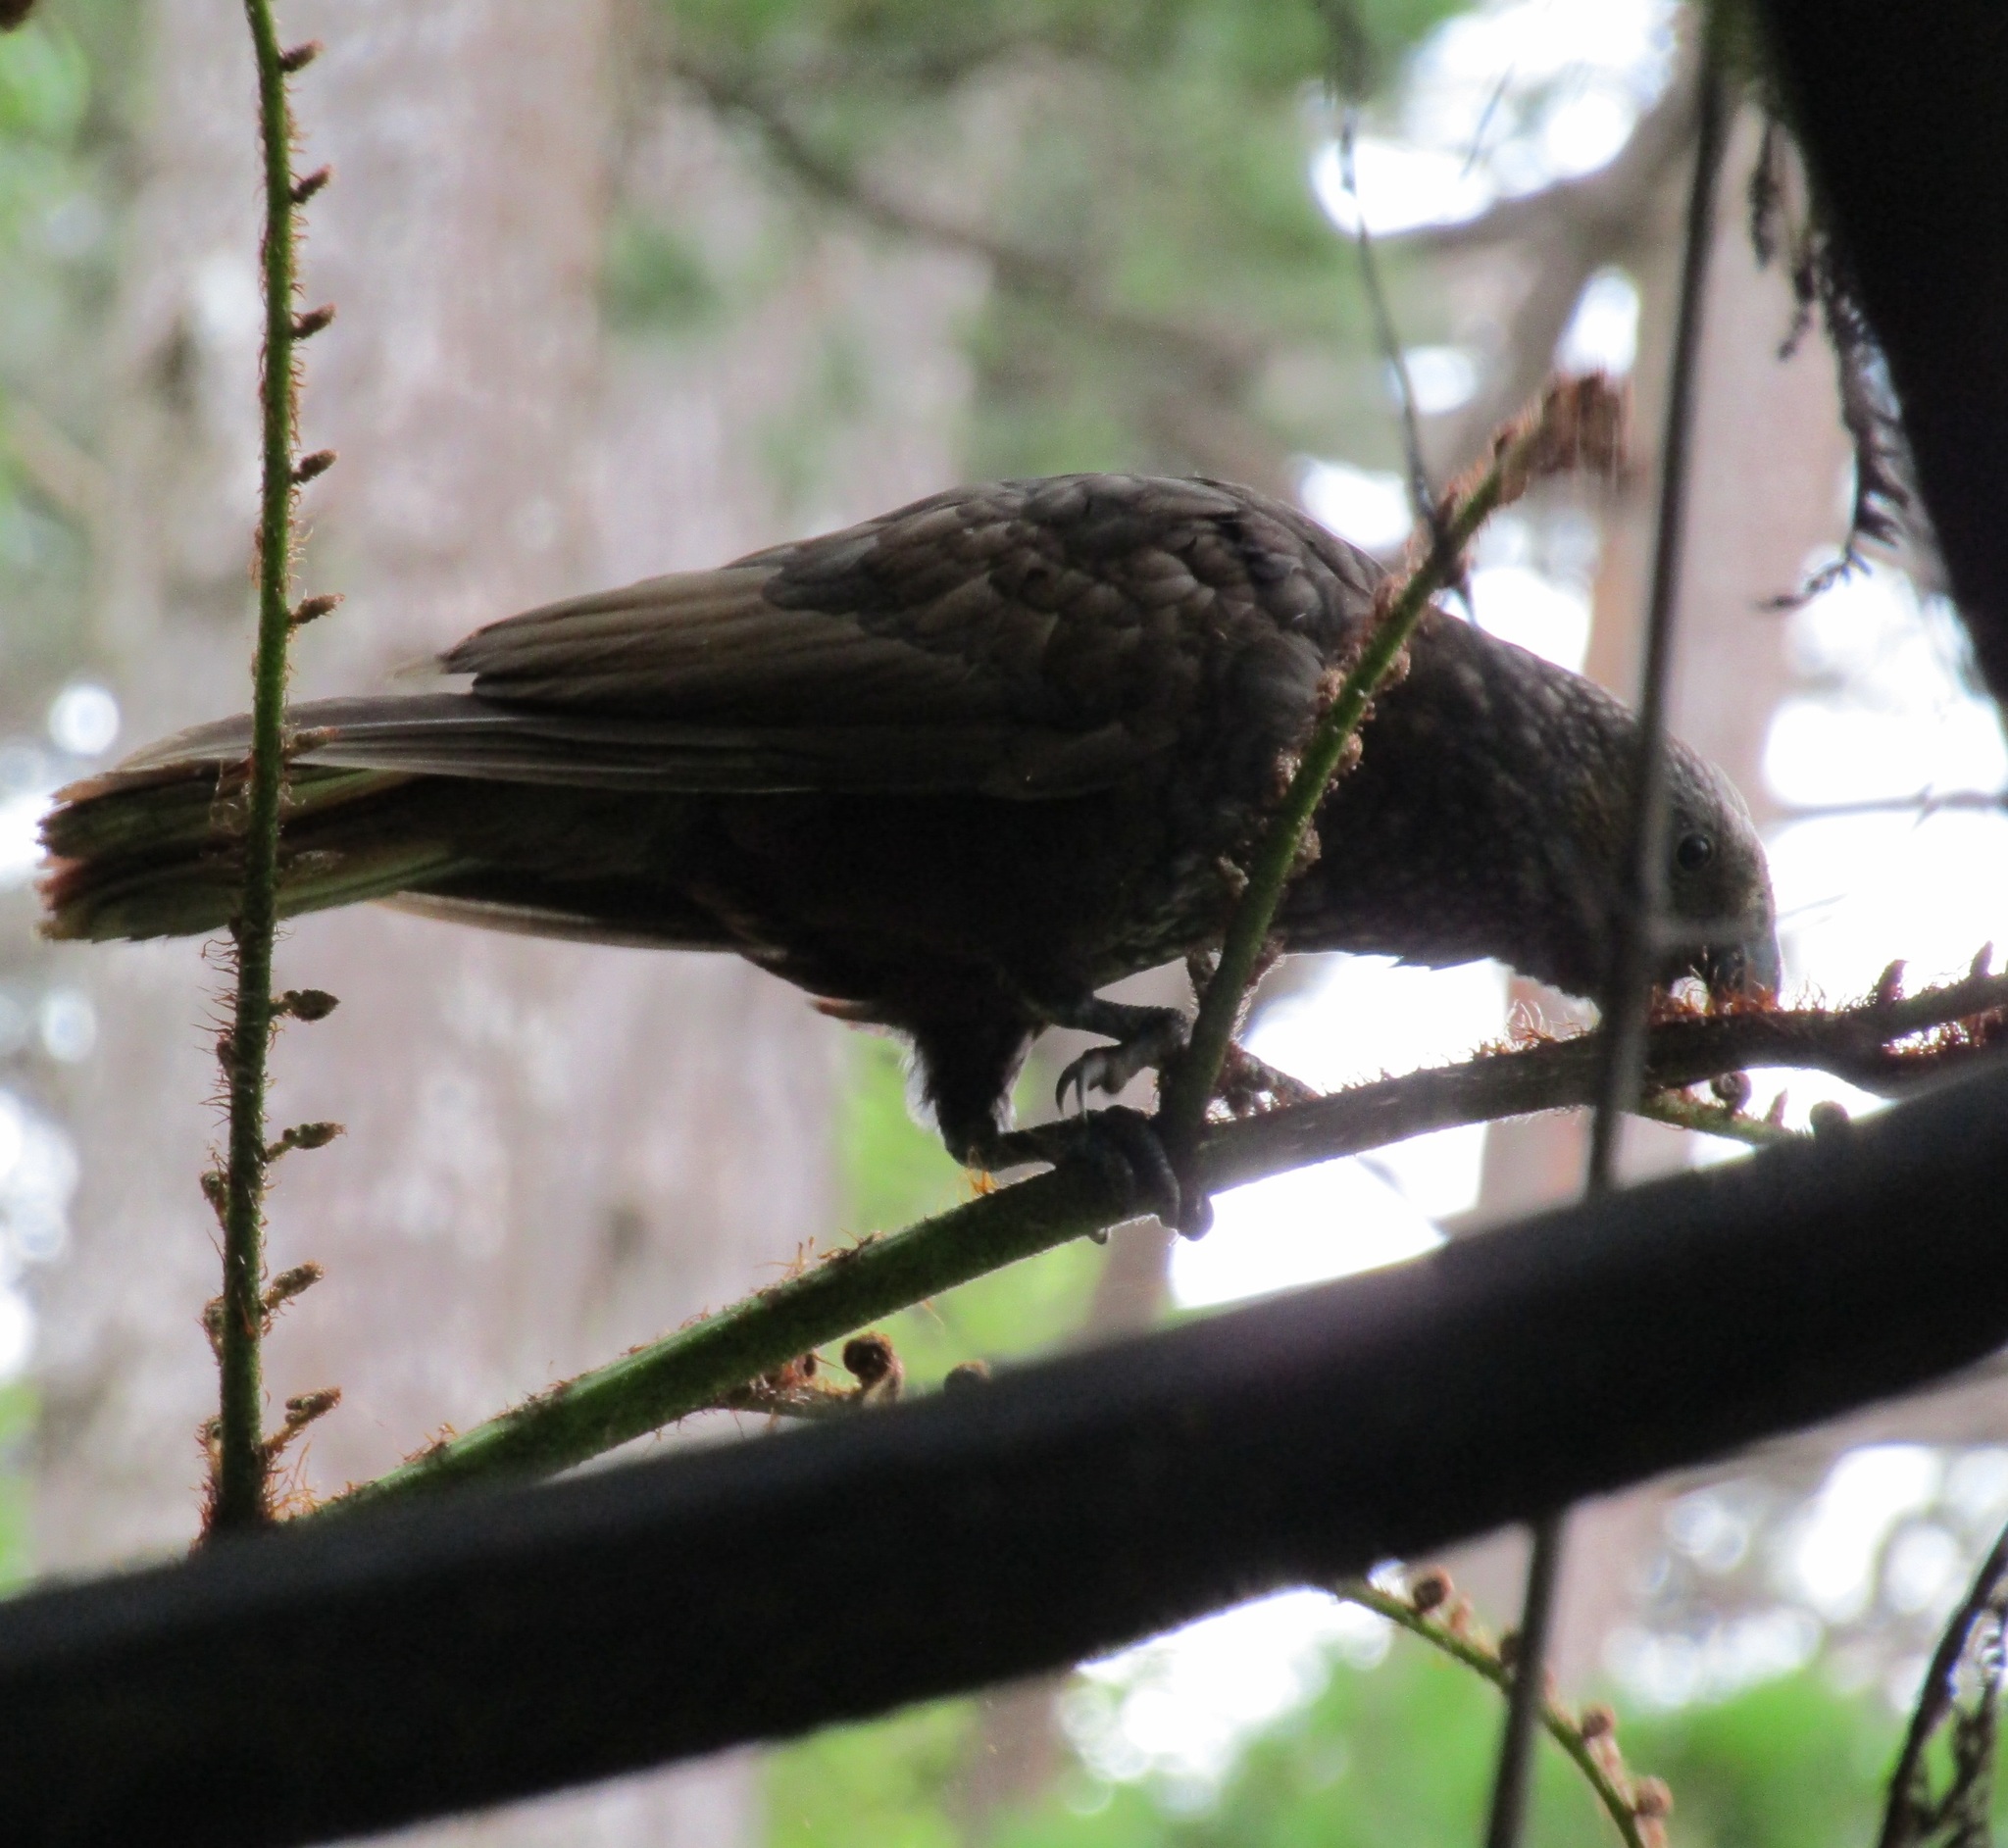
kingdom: Animalia
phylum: Chordata
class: Aves
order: Psittaciformes
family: Psittacidae
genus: Nestor
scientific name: Nestor meridionalis
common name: New zealand kaka
